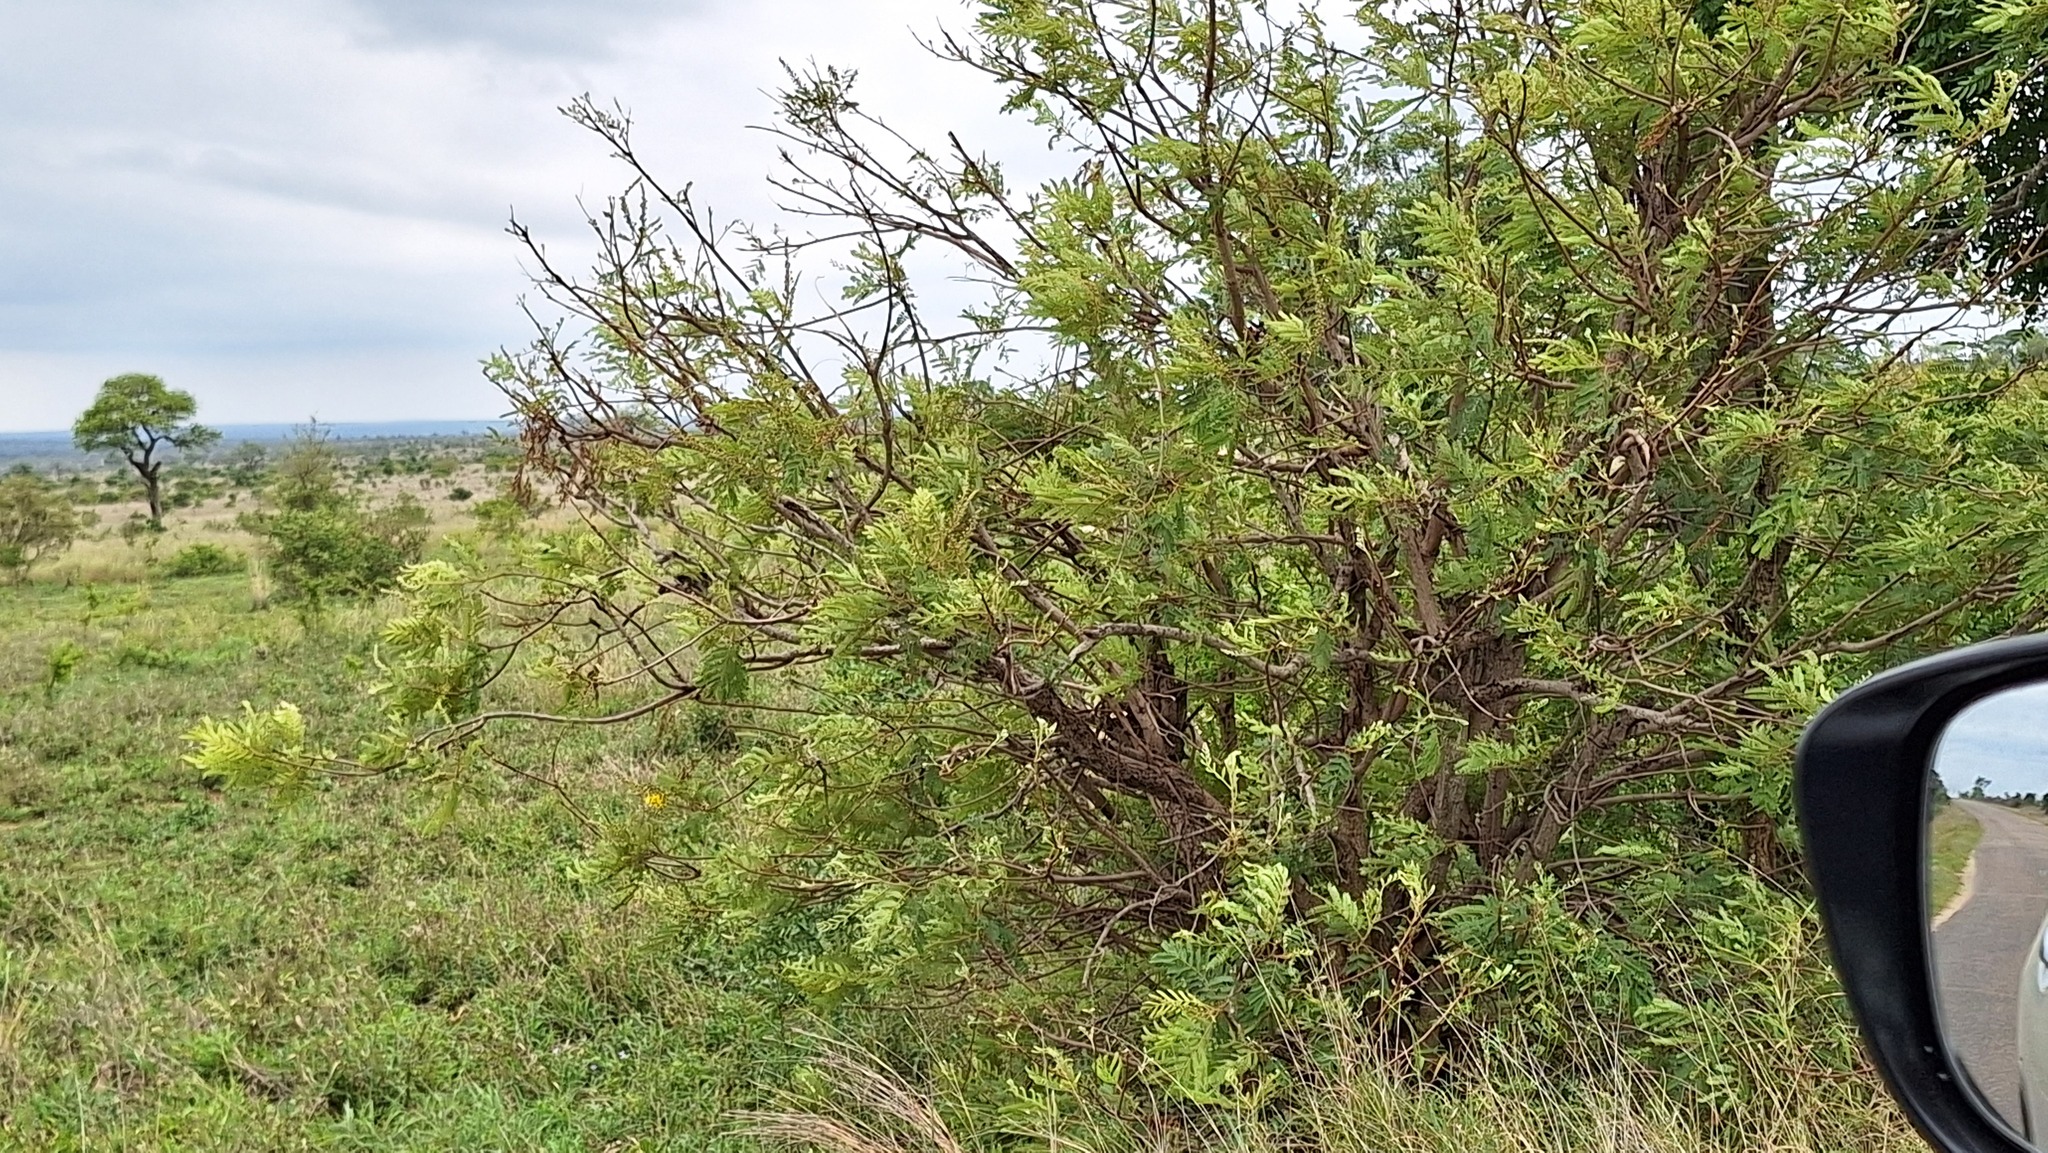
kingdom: Plantae
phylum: Tracheophyta
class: Magnoliopsida
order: Fabales
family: Fabaceae
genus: Peltophorum
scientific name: Peltophorum africanum
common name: African black wattle
